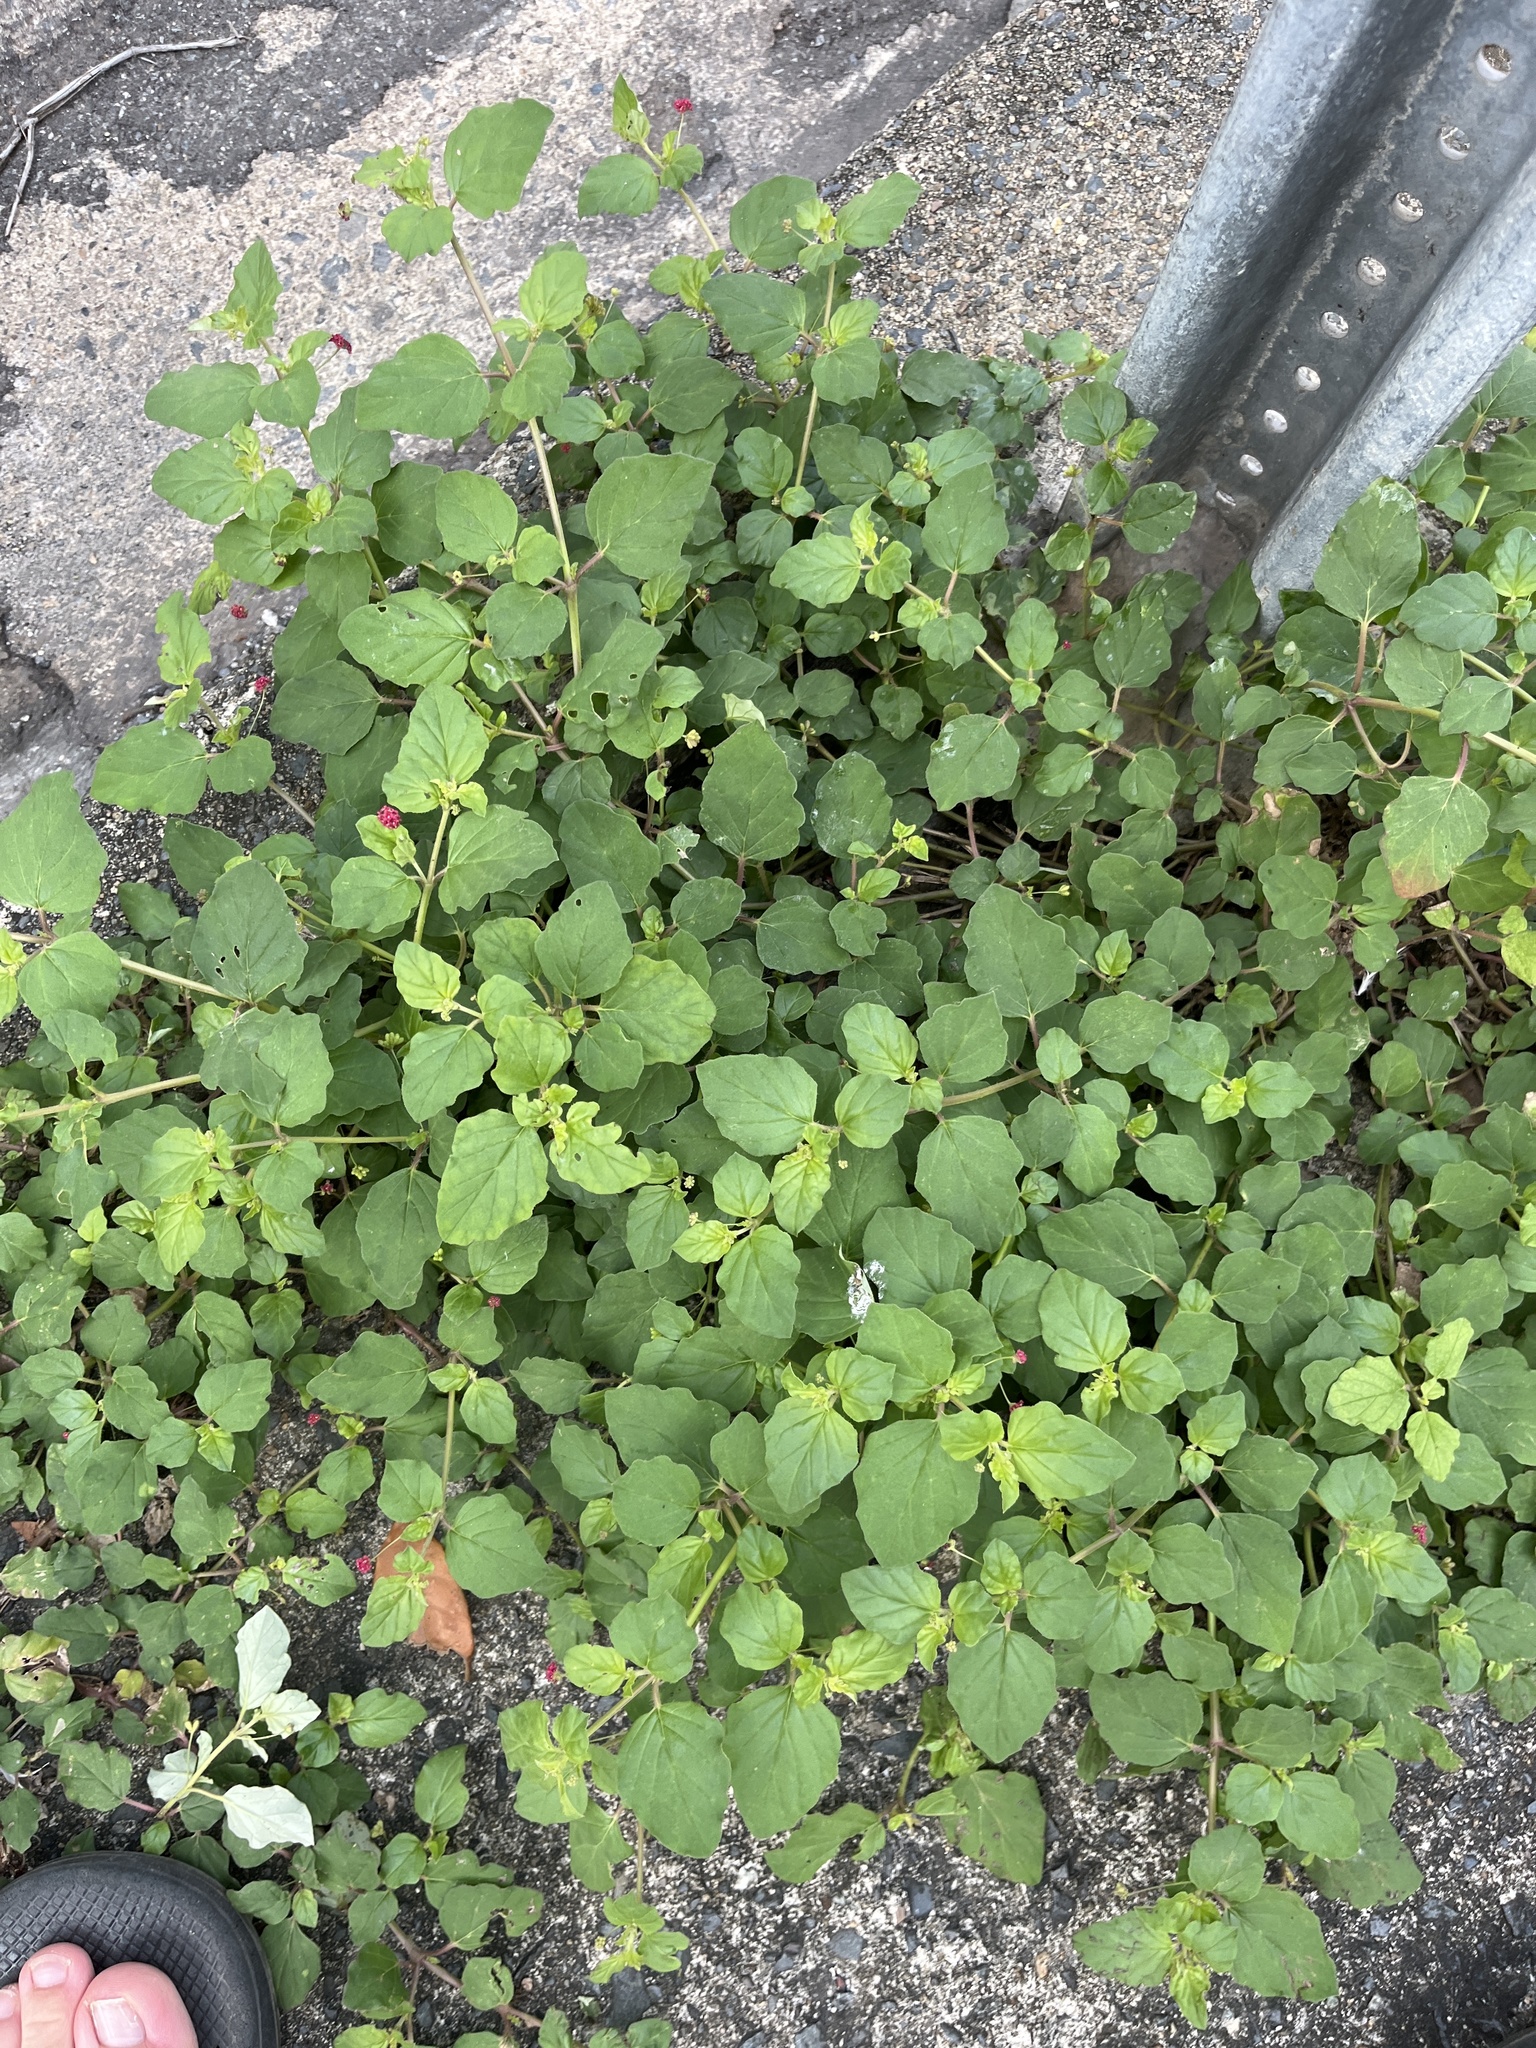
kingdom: Plantae
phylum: Tracheophyta
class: Magnoliopsida
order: Caryophyllales
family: Nyctaginaceae
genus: Boerhavia
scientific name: Boerhavia coccinea
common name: Scarlet spiderling
